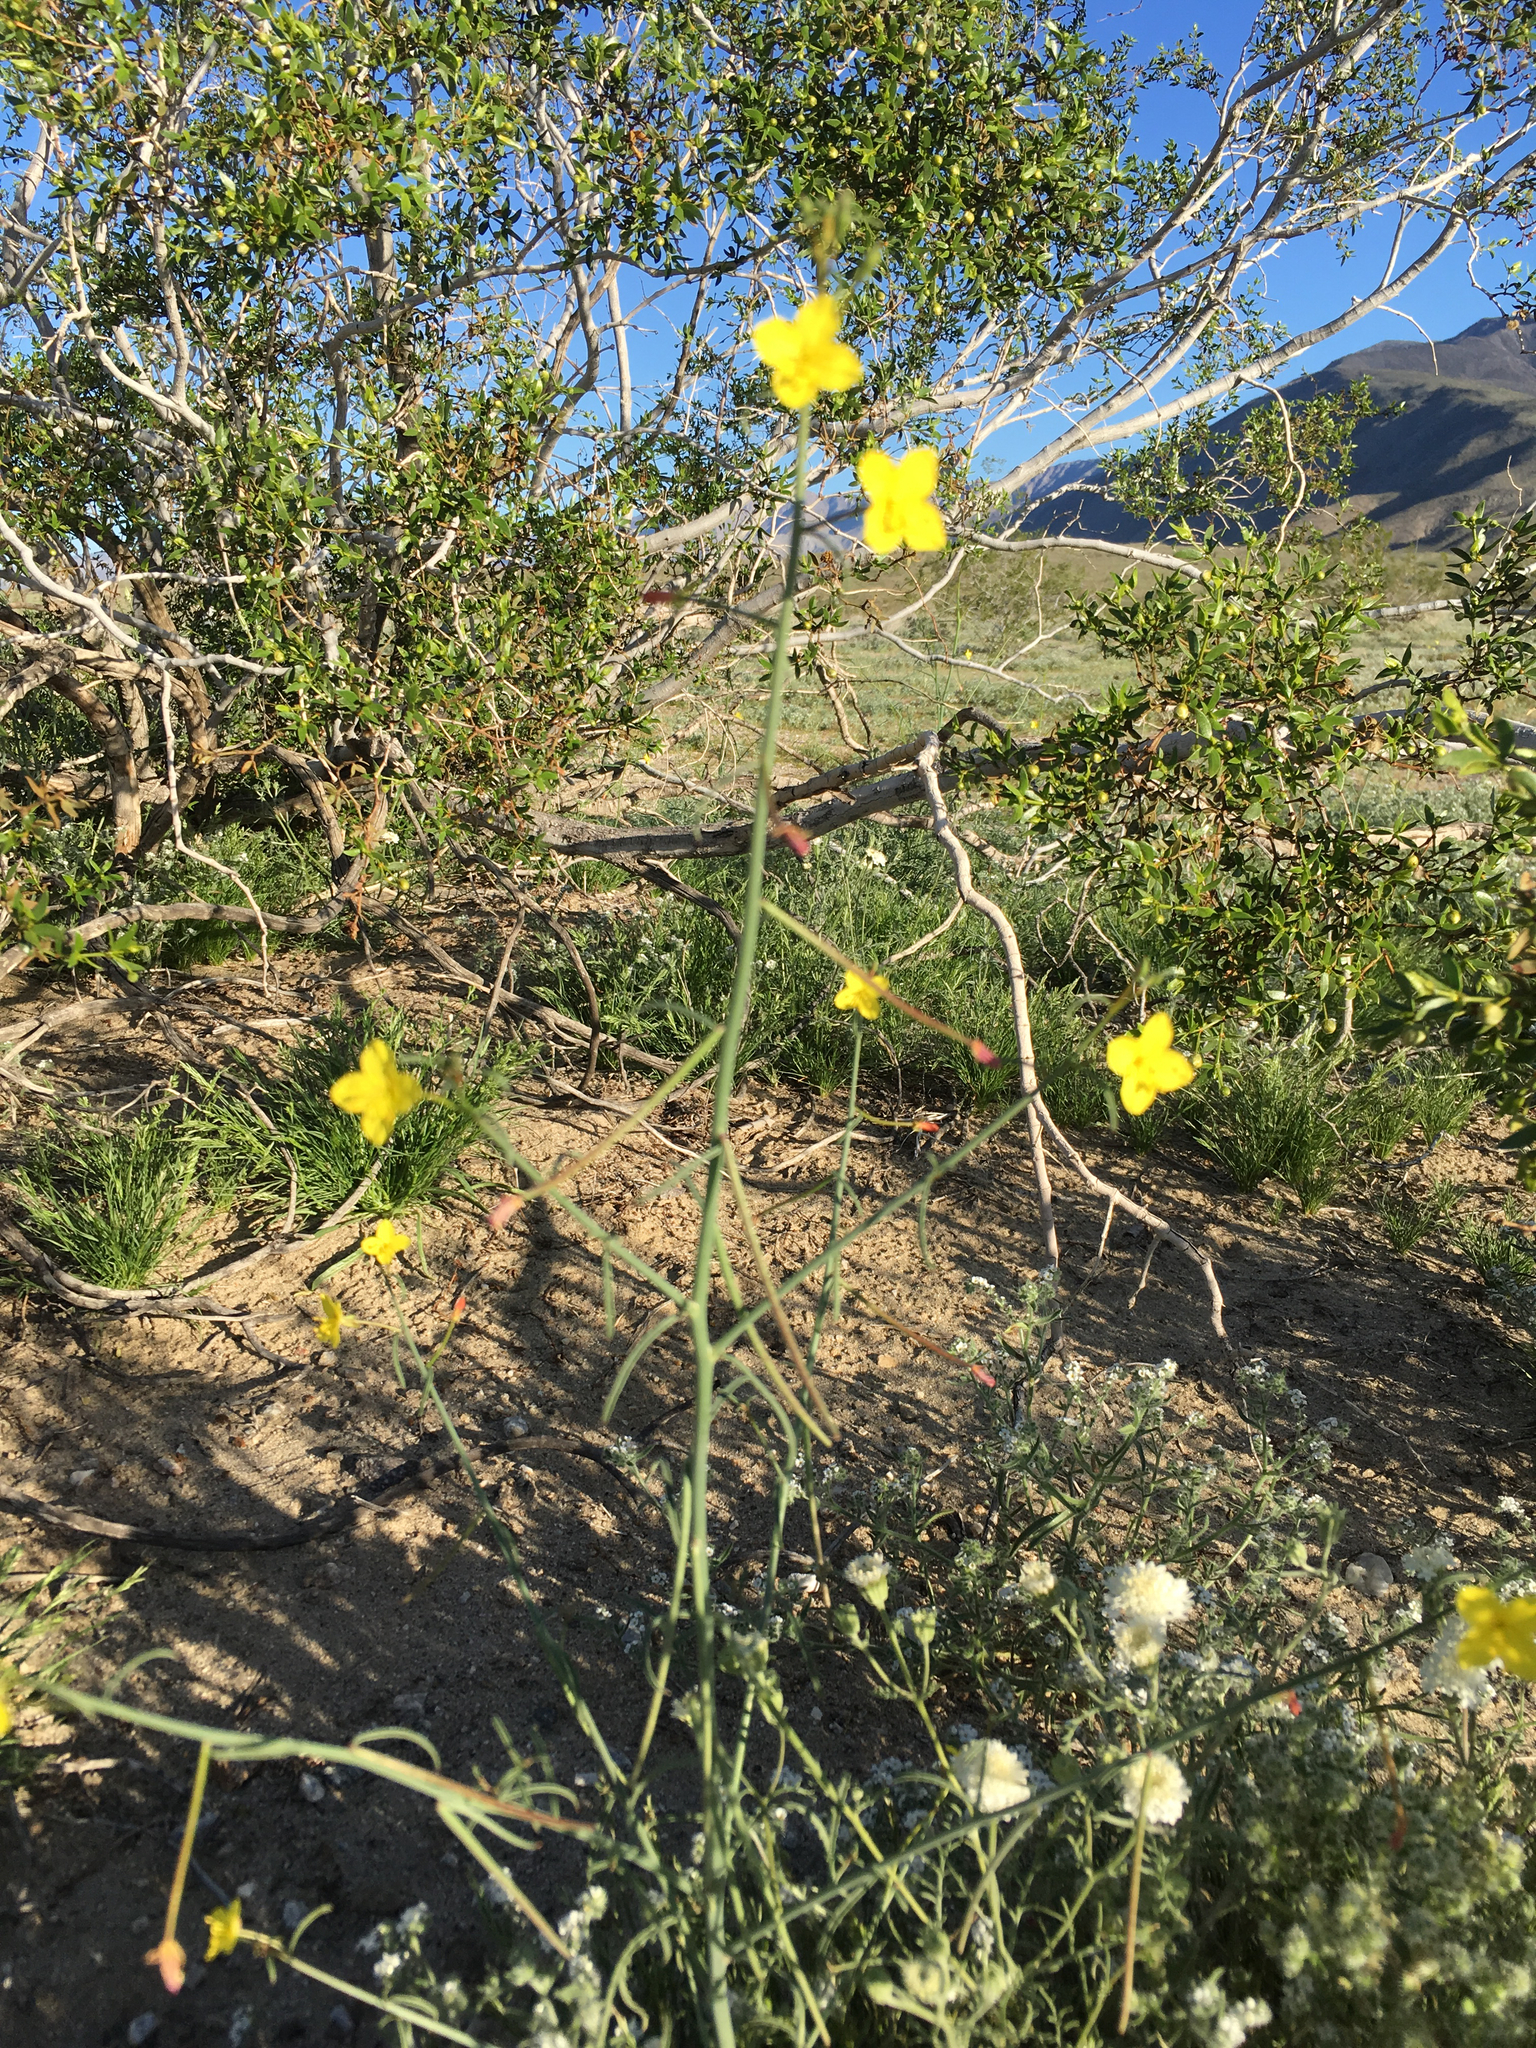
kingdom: Plantae
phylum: Tracheophyta
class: Magnoliopsida
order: Myrtales
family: Onagraceae
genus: Eulobus
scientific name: Eulobus californicus
